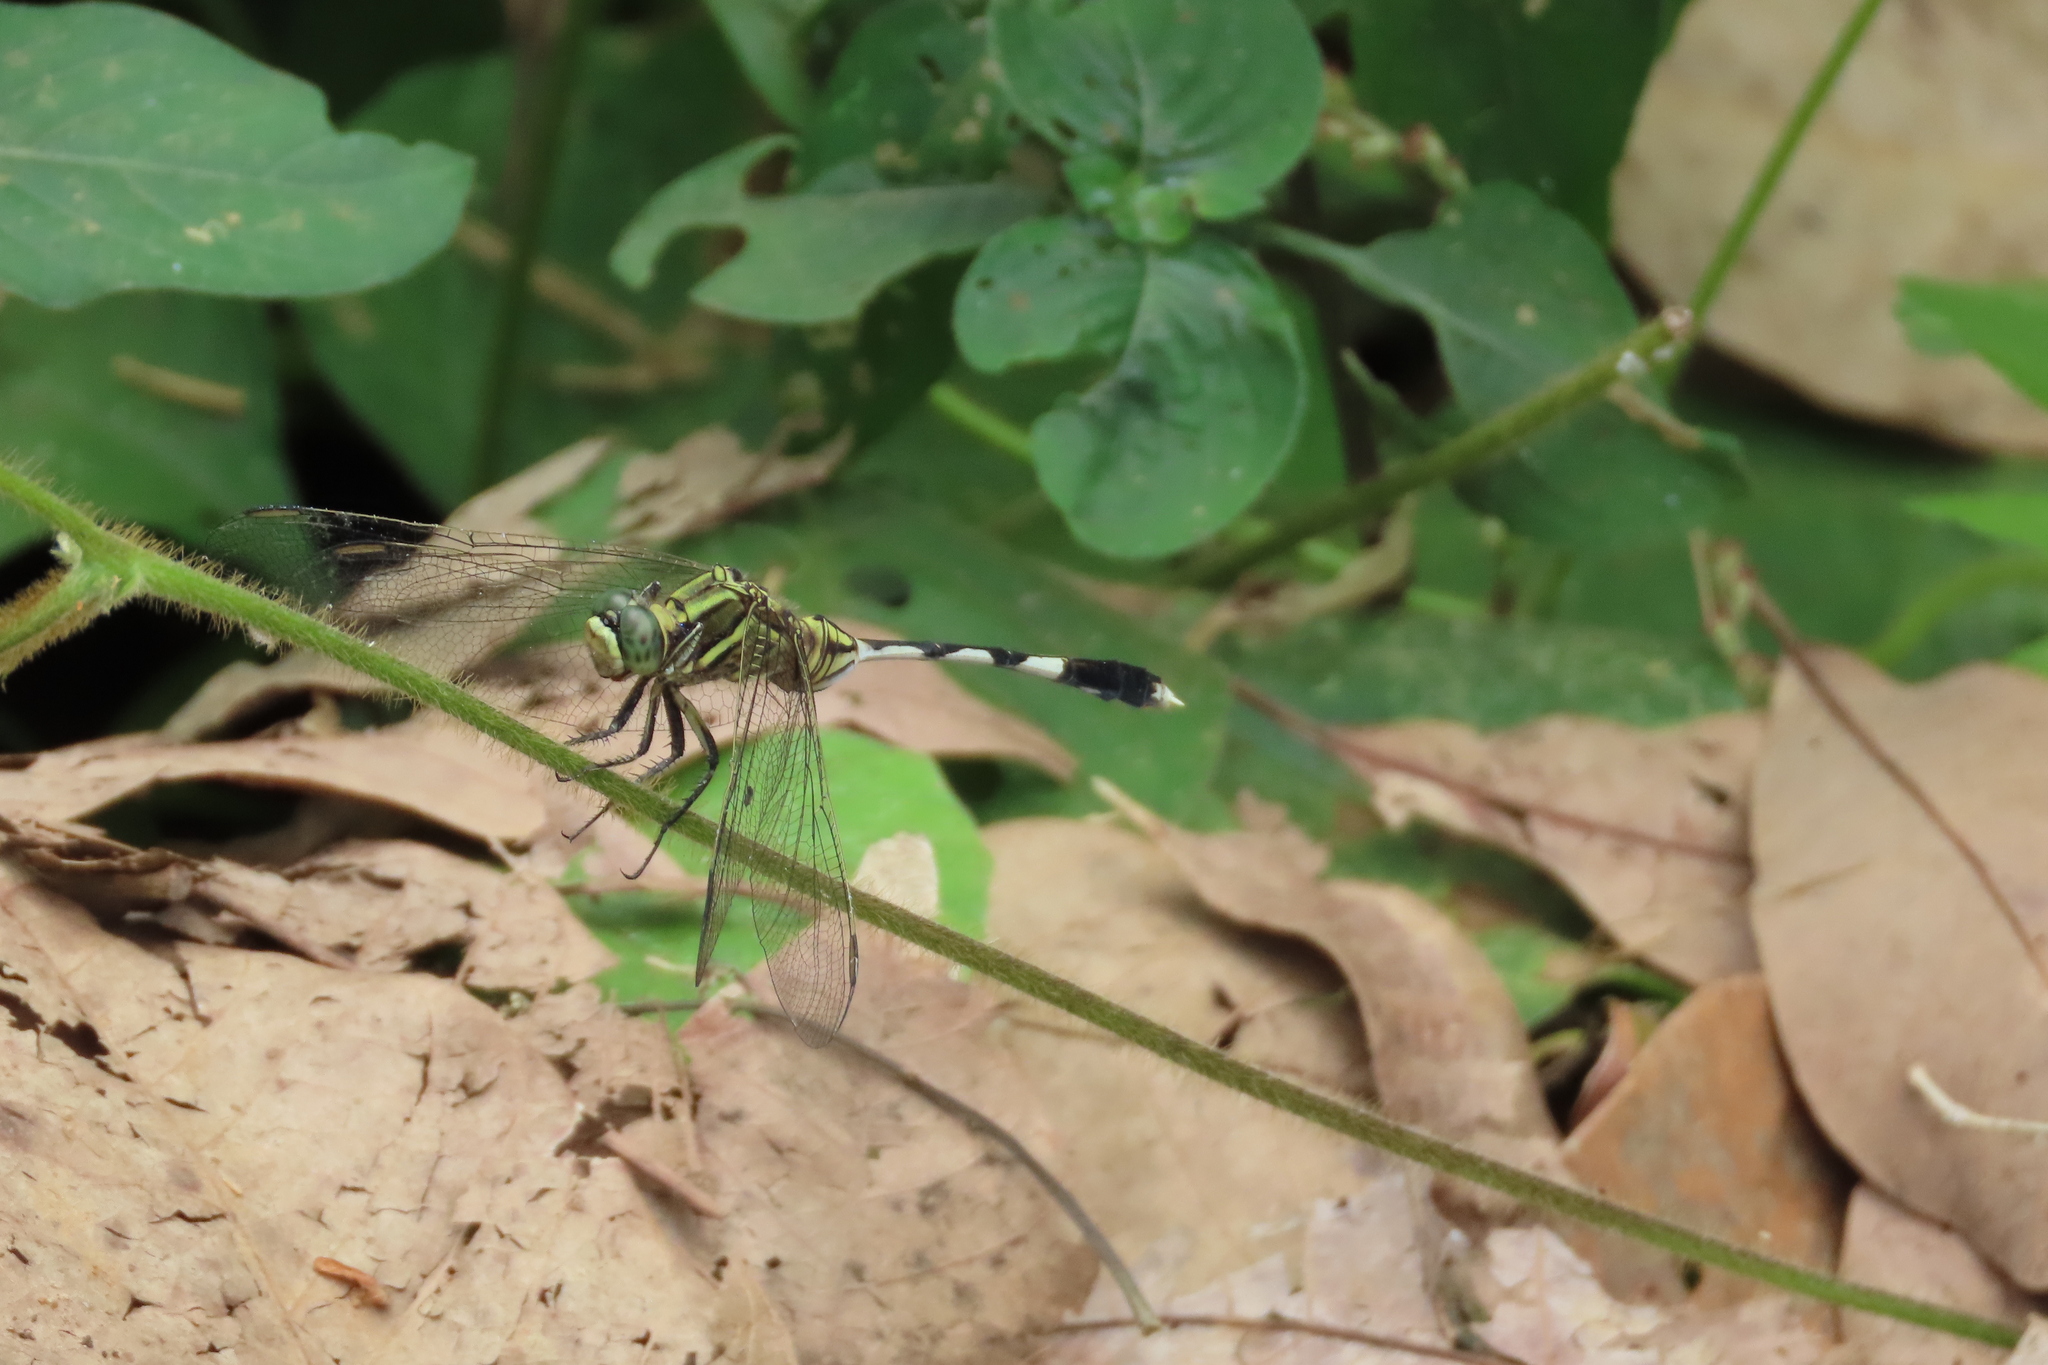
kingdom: Animalia
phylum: Arthropoda
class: Insecta
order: Odonata
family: Libellulidae
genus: Orthetrum
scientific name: Orthetrum sabina
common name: Slender skimmer
